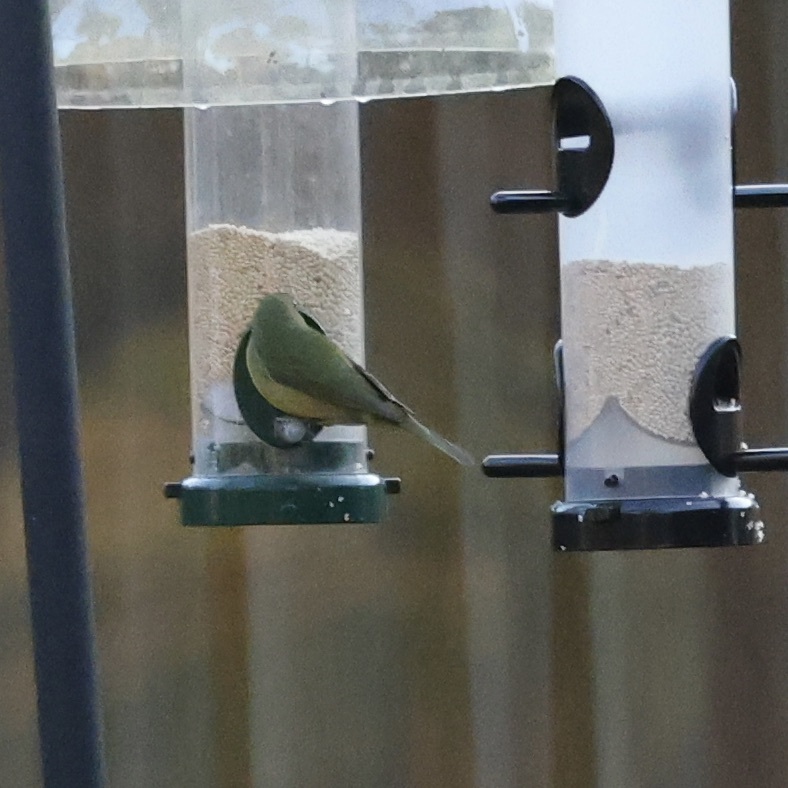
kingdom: Animalia
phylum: Chordata
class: Aves
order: Passeriformes
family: Cardinalidae
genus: Passerina
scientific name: Passerina ciris
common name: Painted bunting
